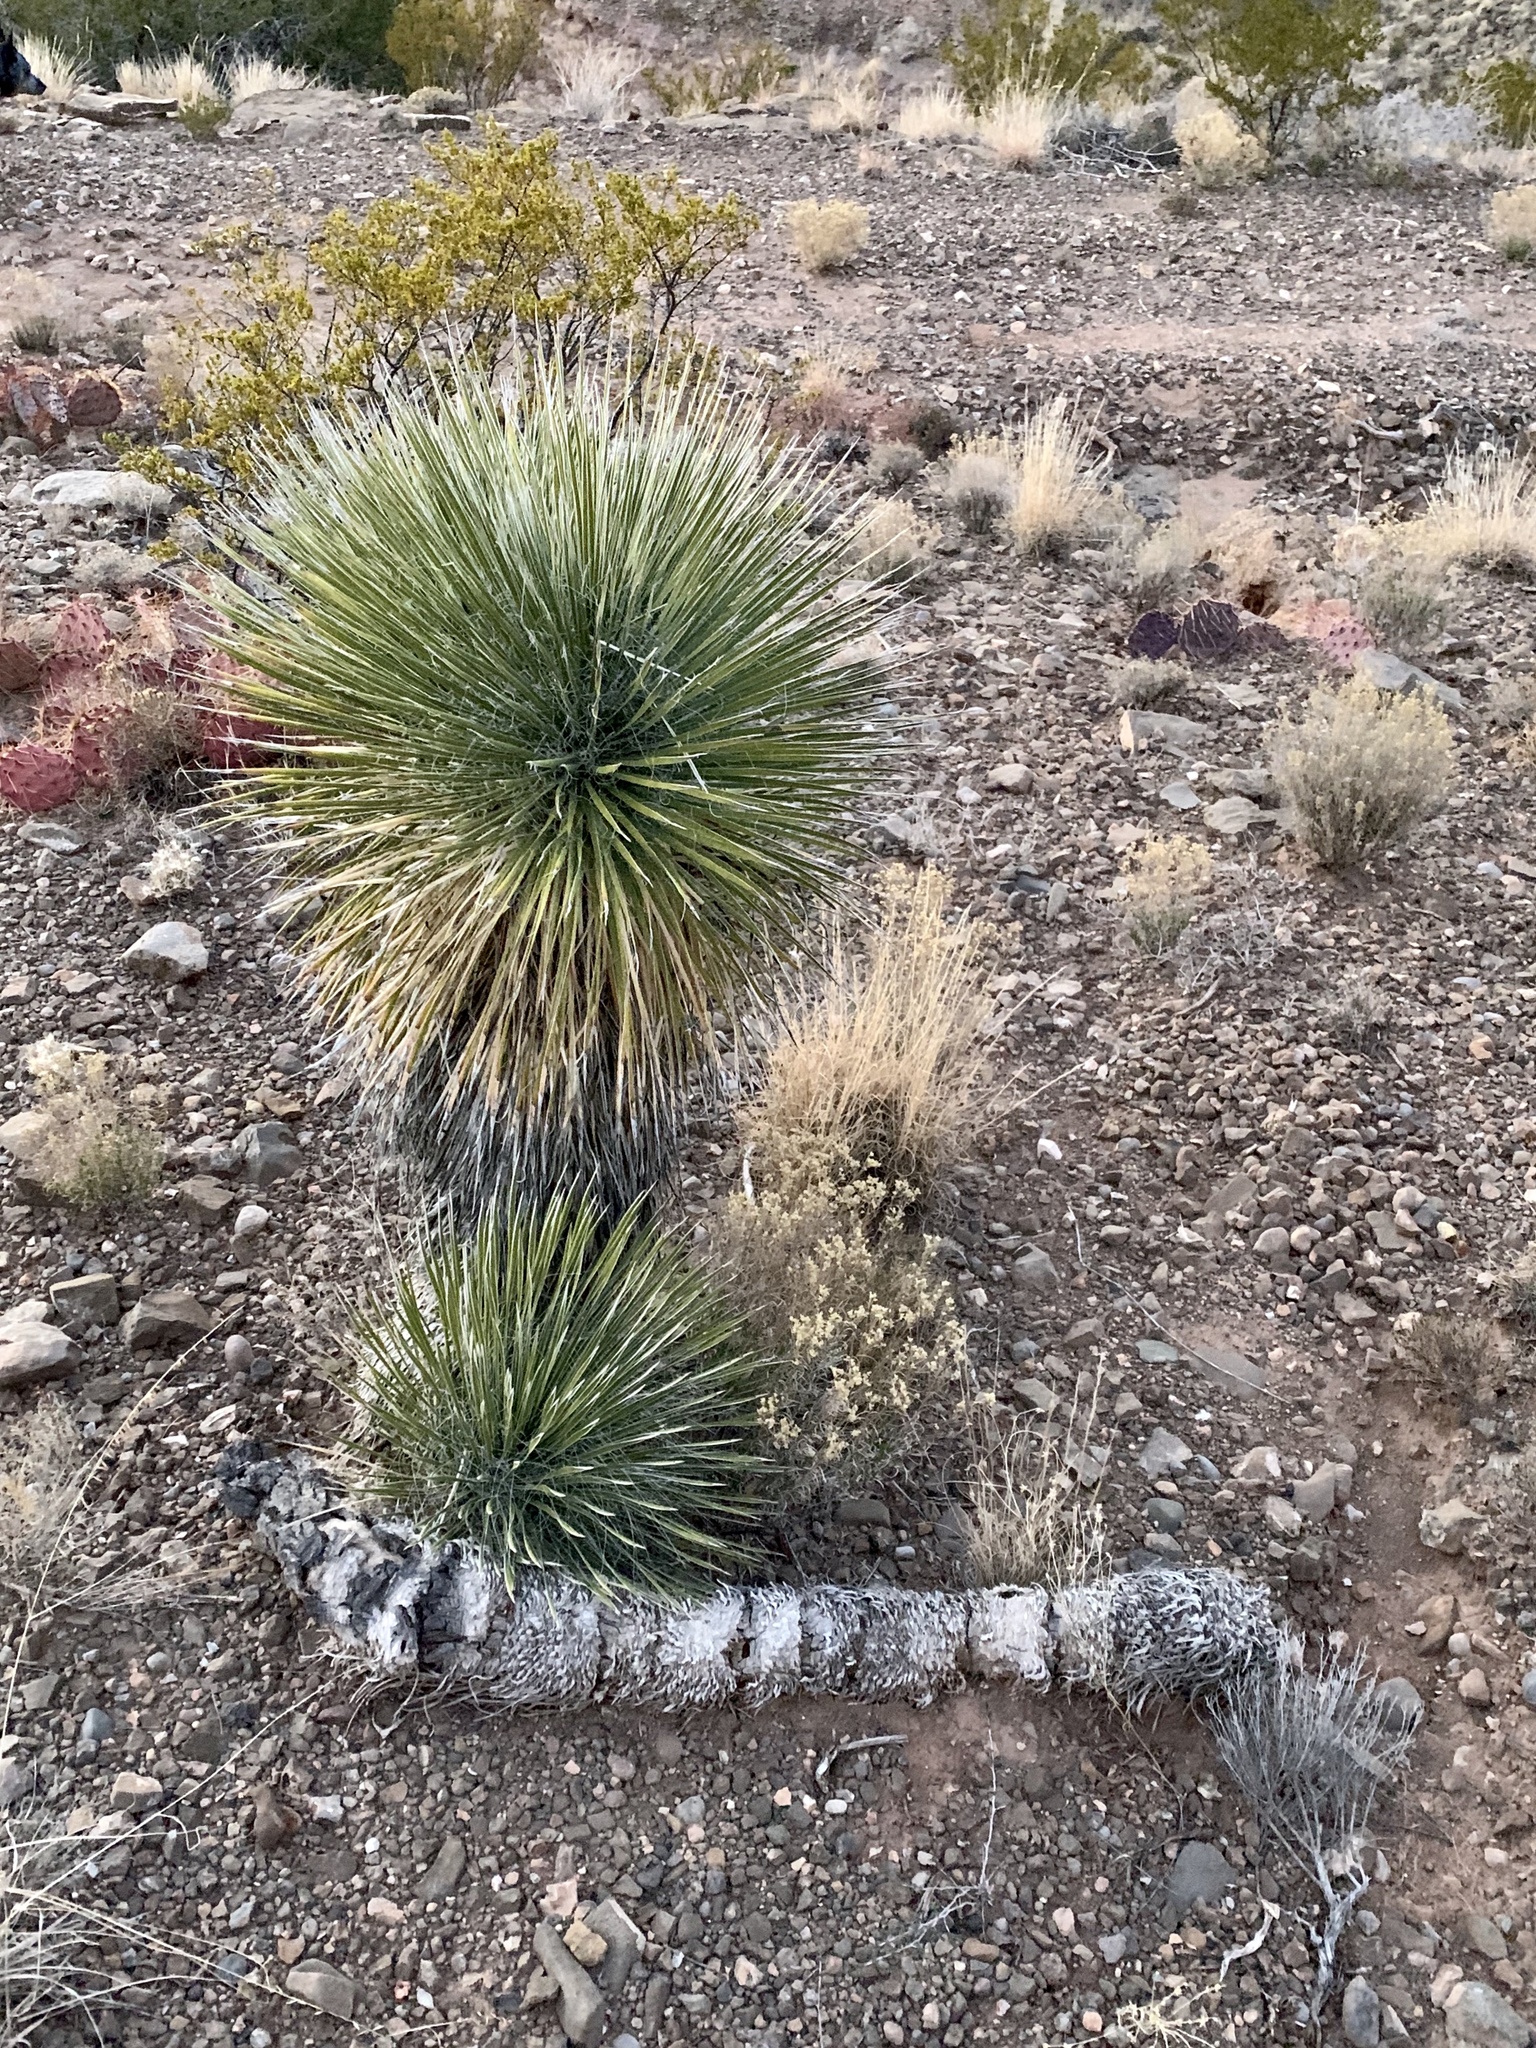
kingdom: Plantae
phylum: Tracheophyta
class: Liliopsida
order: Asparagales
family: Asparagaceae
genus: Yucca
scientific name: Yucca elata
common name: Palmella
